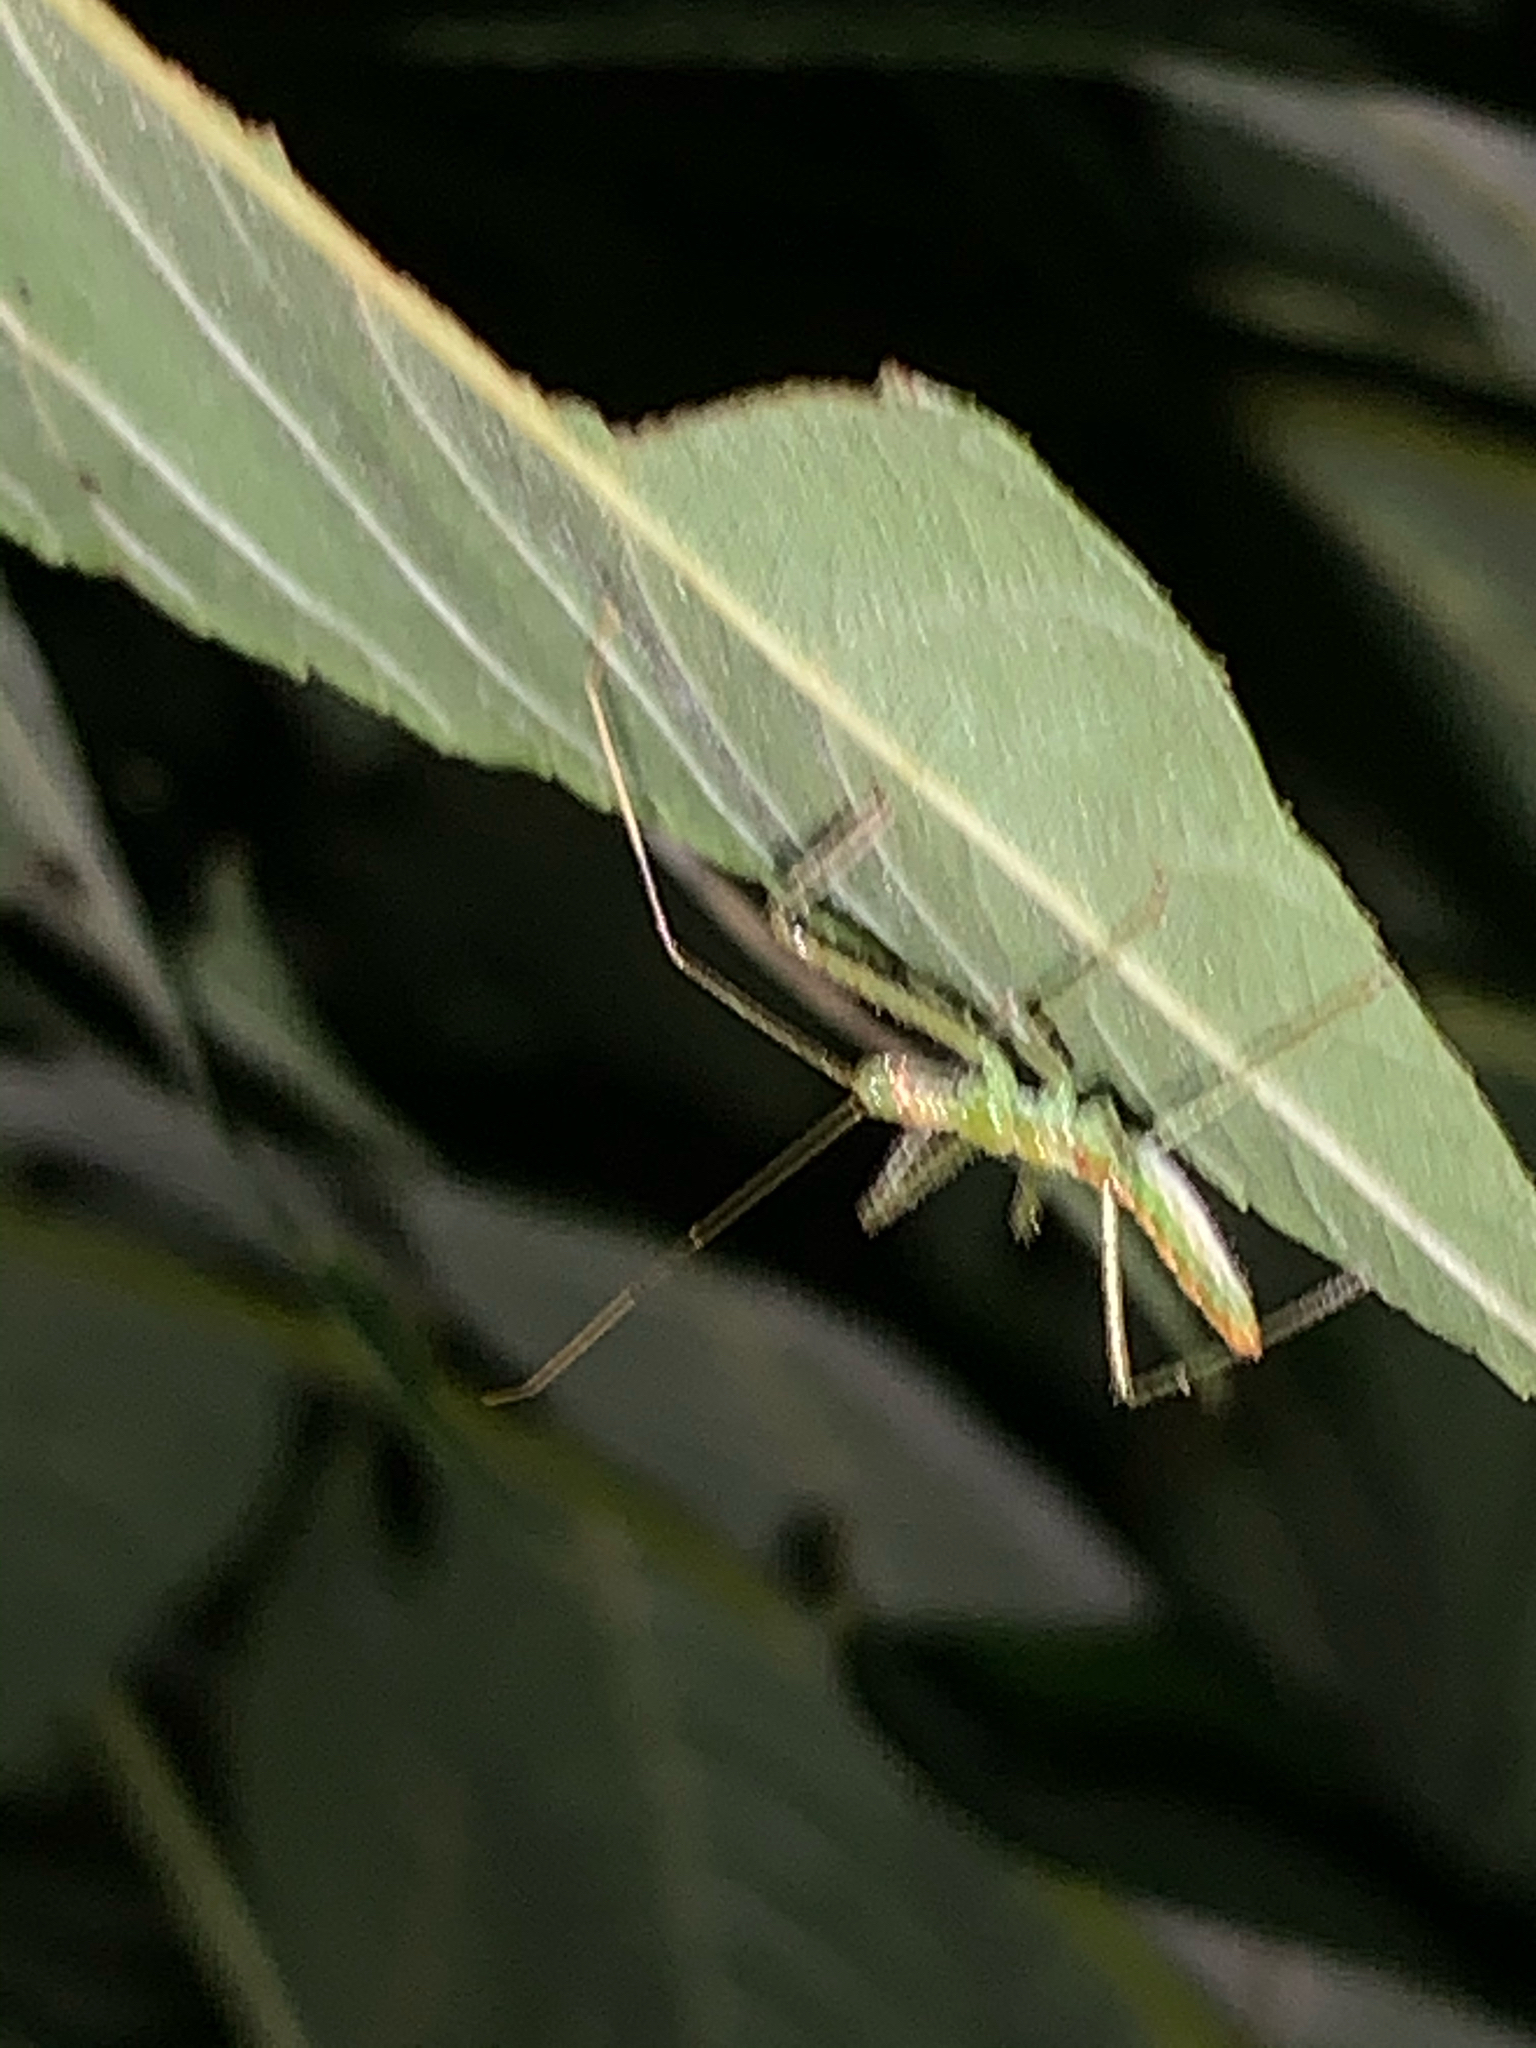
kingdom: Animalia
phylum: Arthropoda
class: Insecta
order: Hemiptera
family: Reduviidae
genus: Zelus
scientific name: Zelus luridus
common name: Pale green assassin bug
